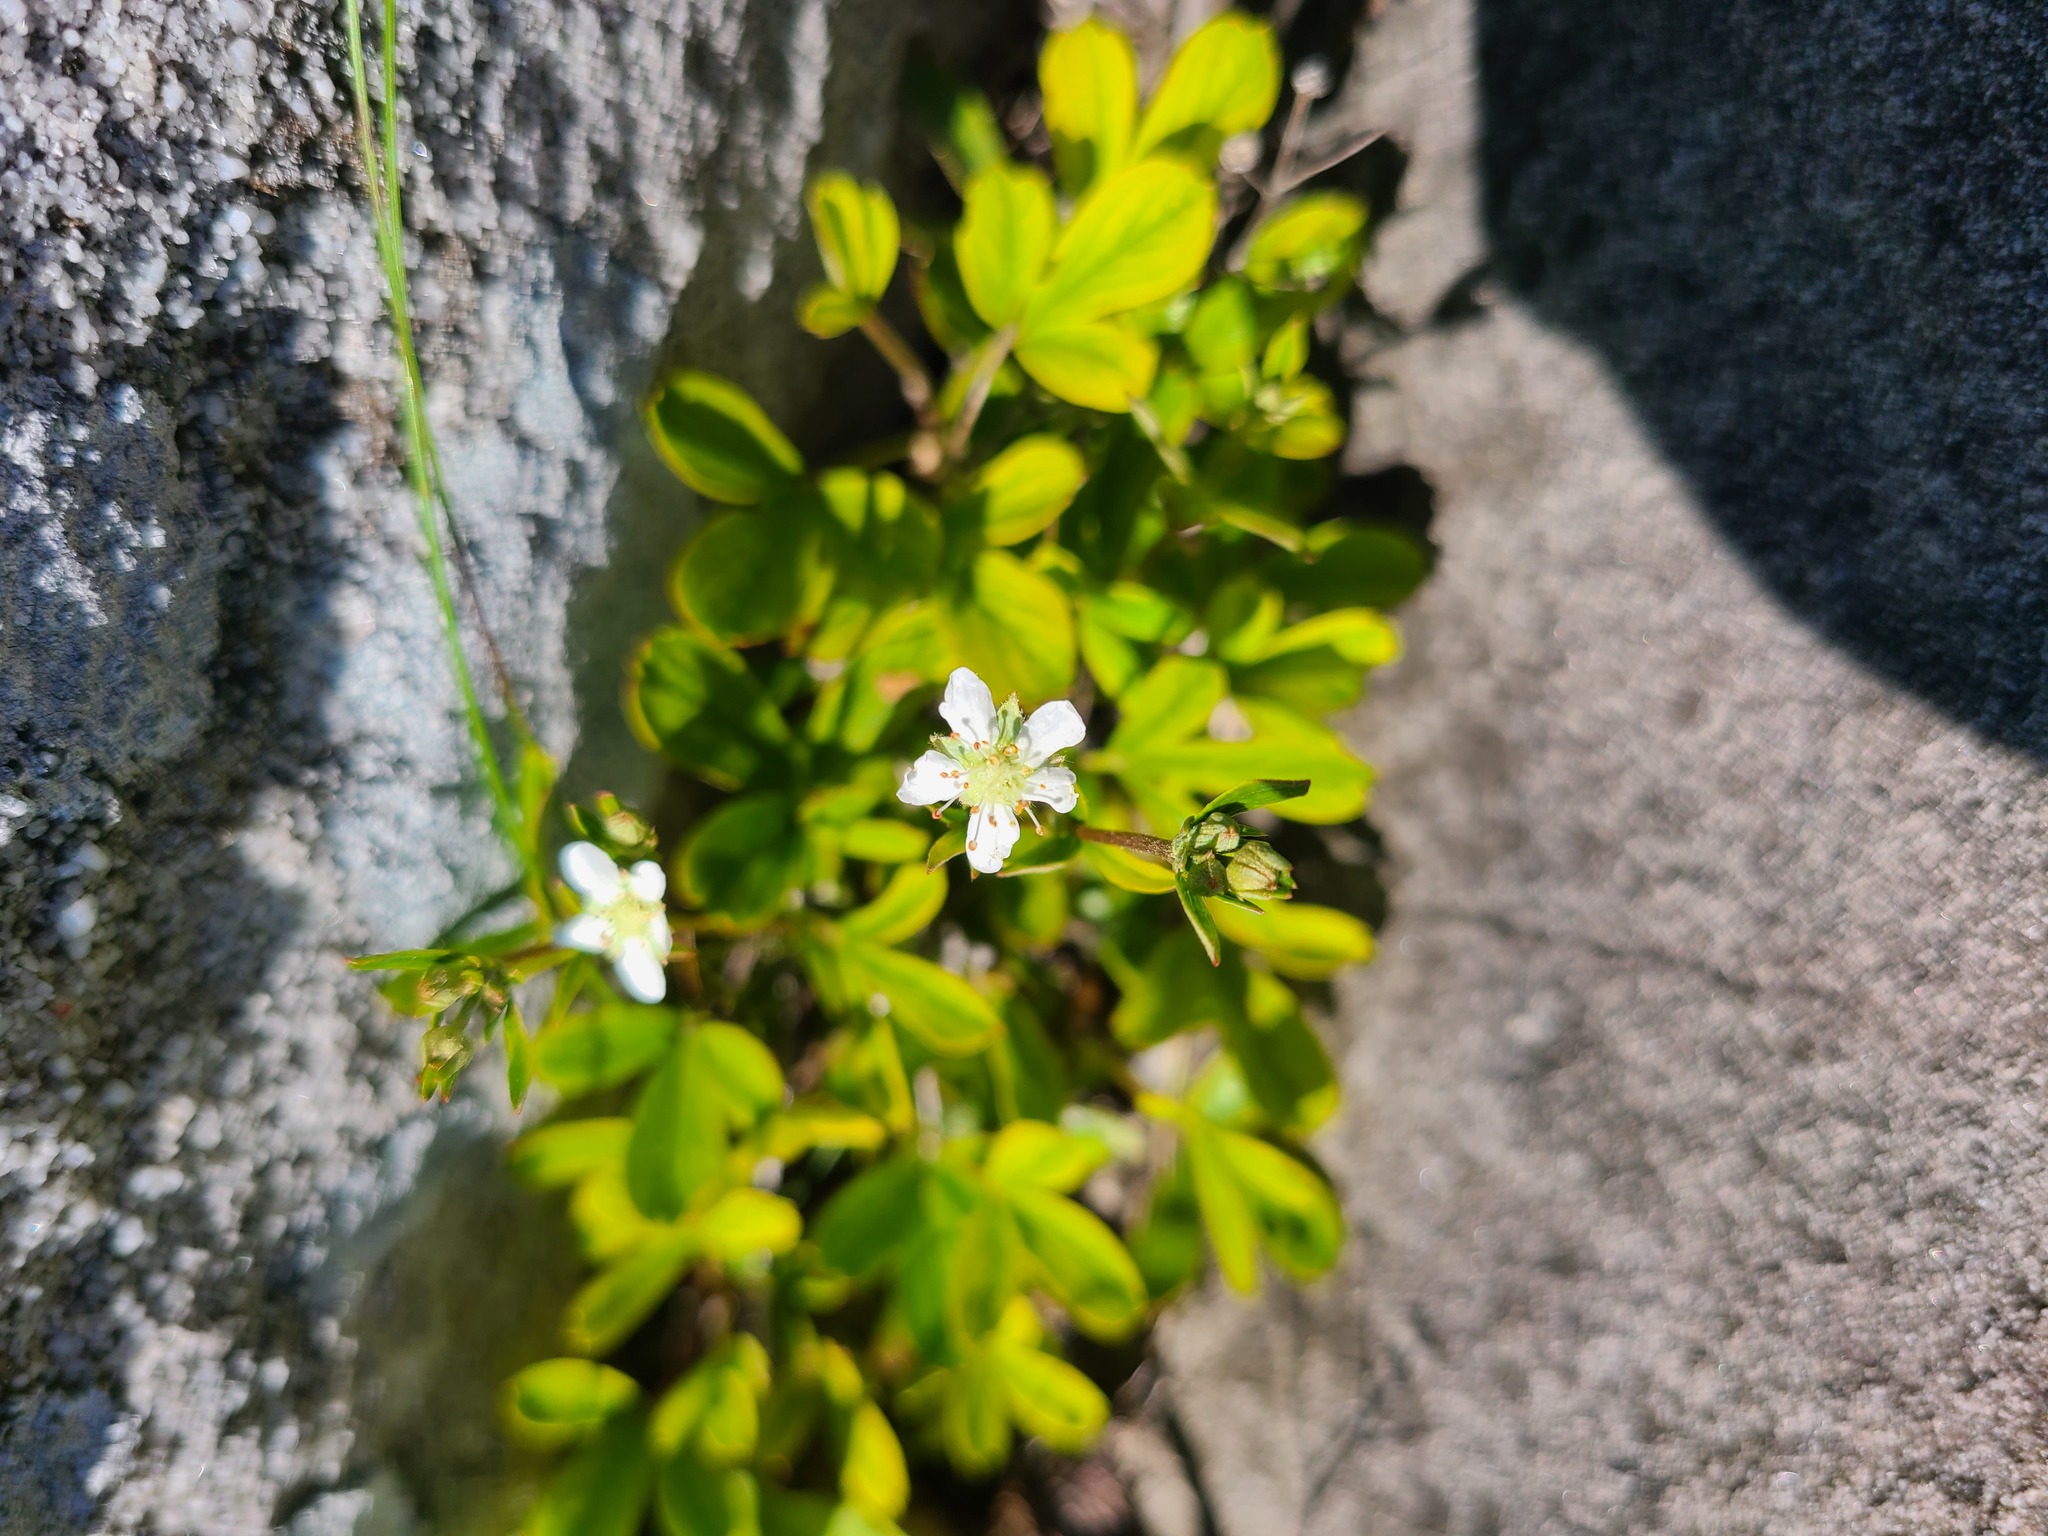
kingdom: Plantae
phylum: Tracheophyta
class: Magnoliopsida
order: Rosales
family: Rosaceae
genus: Sibbaldia
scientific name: Sibbaldia tridentata
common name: Three-toothed cinquefoil
